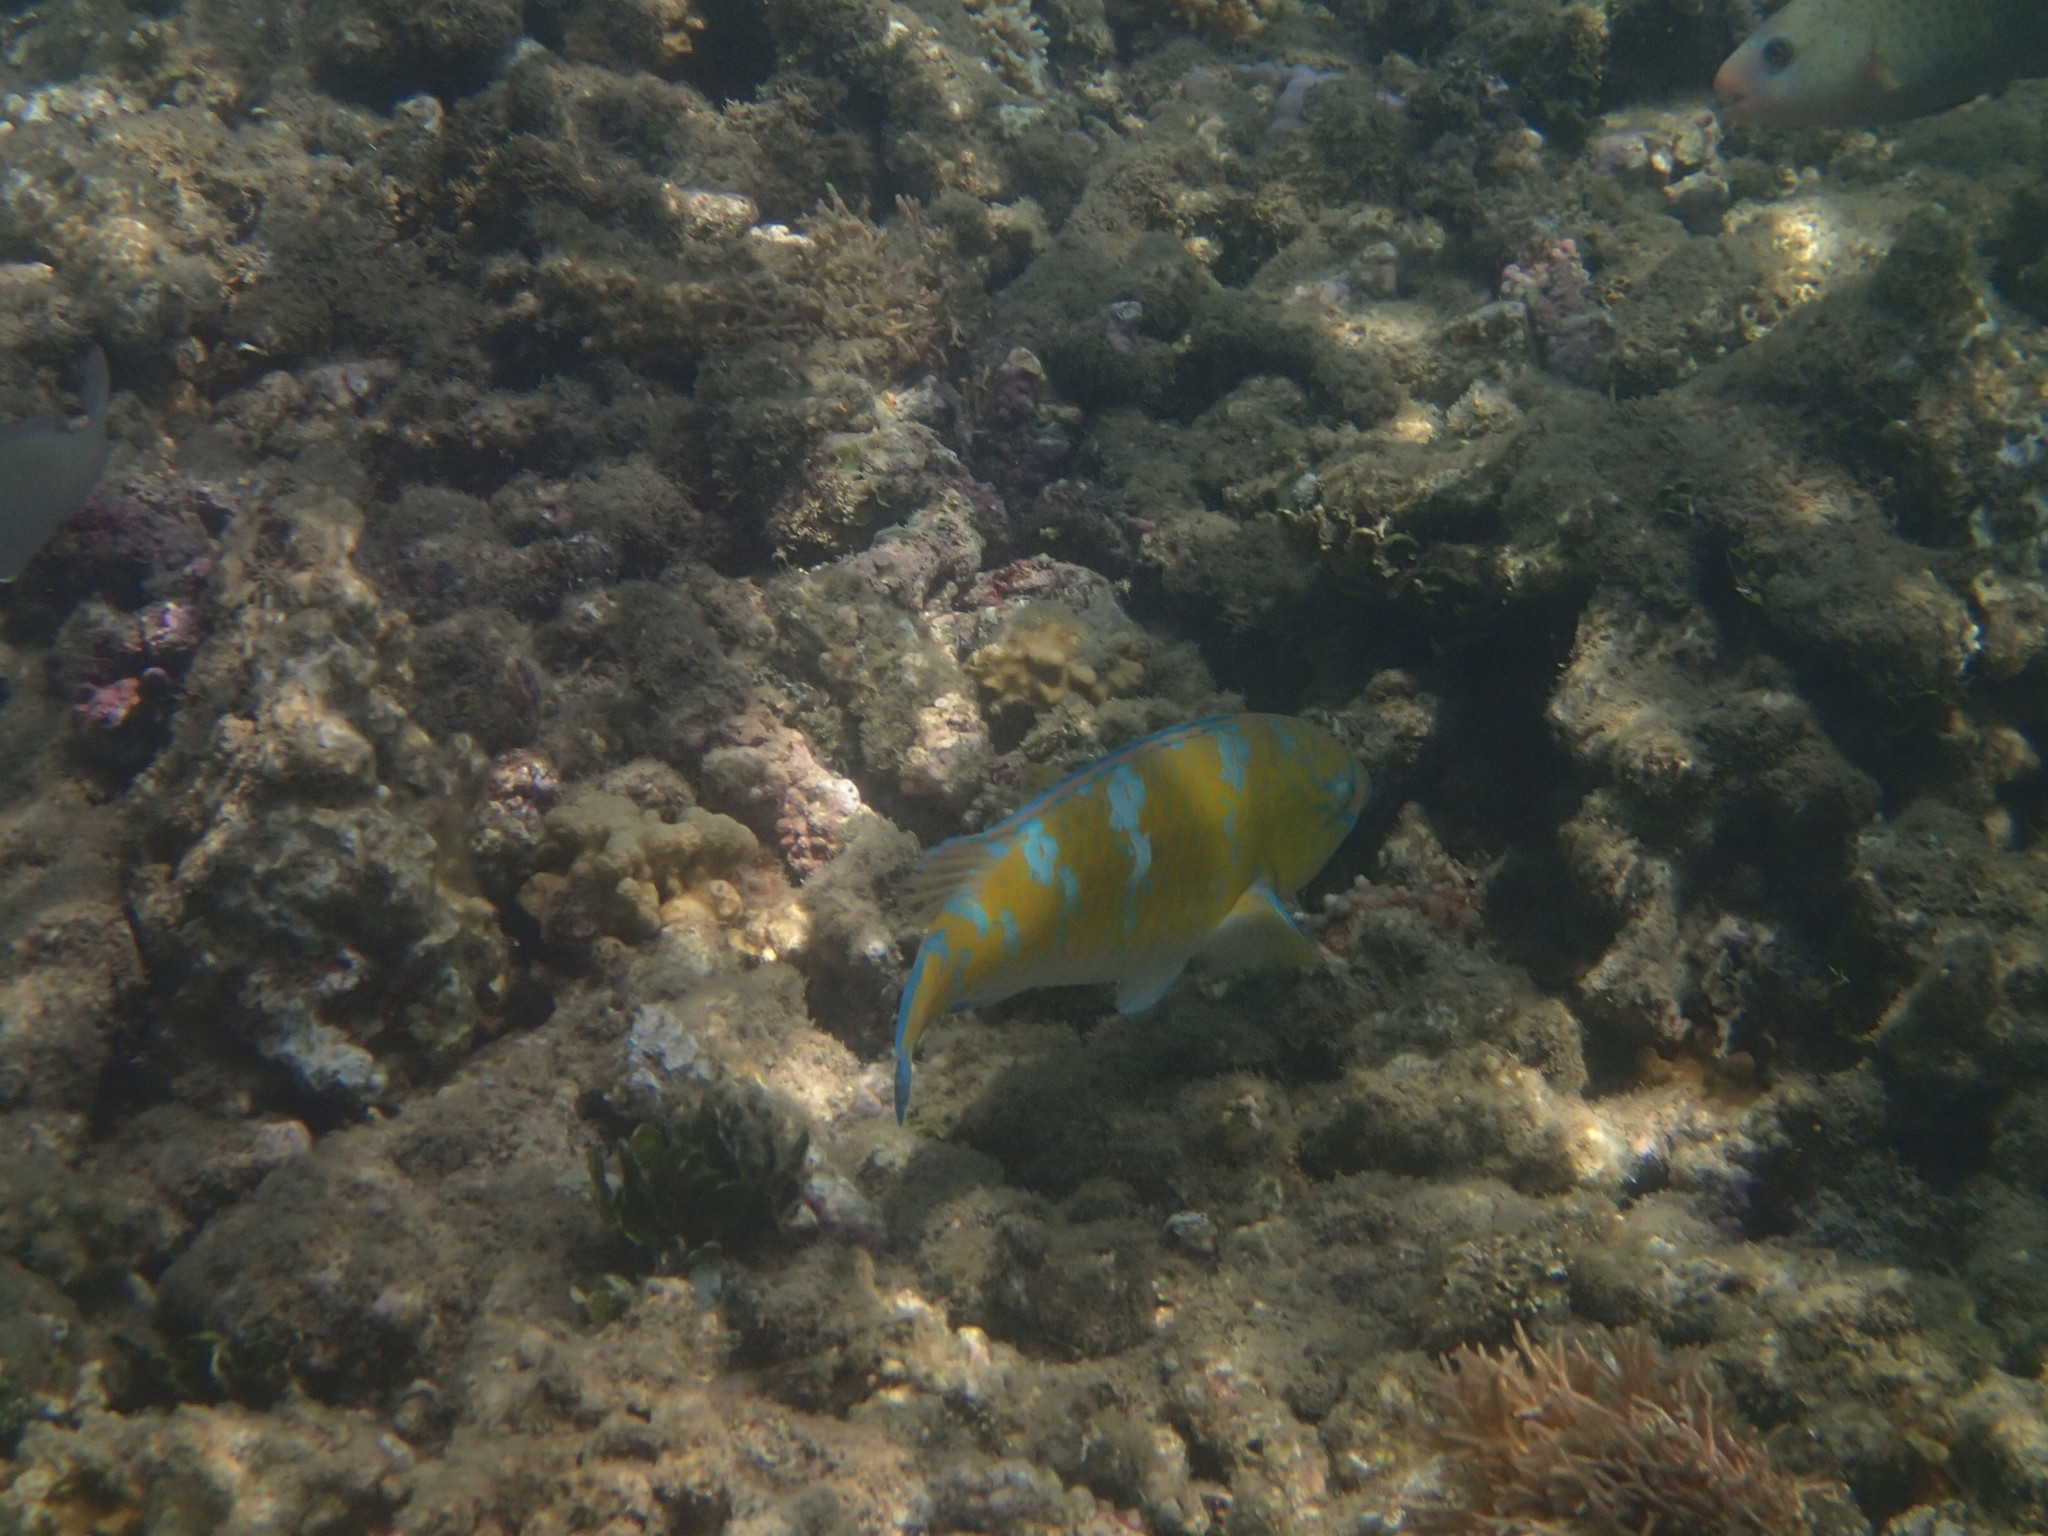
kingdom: Animalia
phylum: Chordata
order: Perciformes
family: Scaridae
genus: Scarus
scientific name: Scarus ghobban
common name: Blue-barred parrotfish
